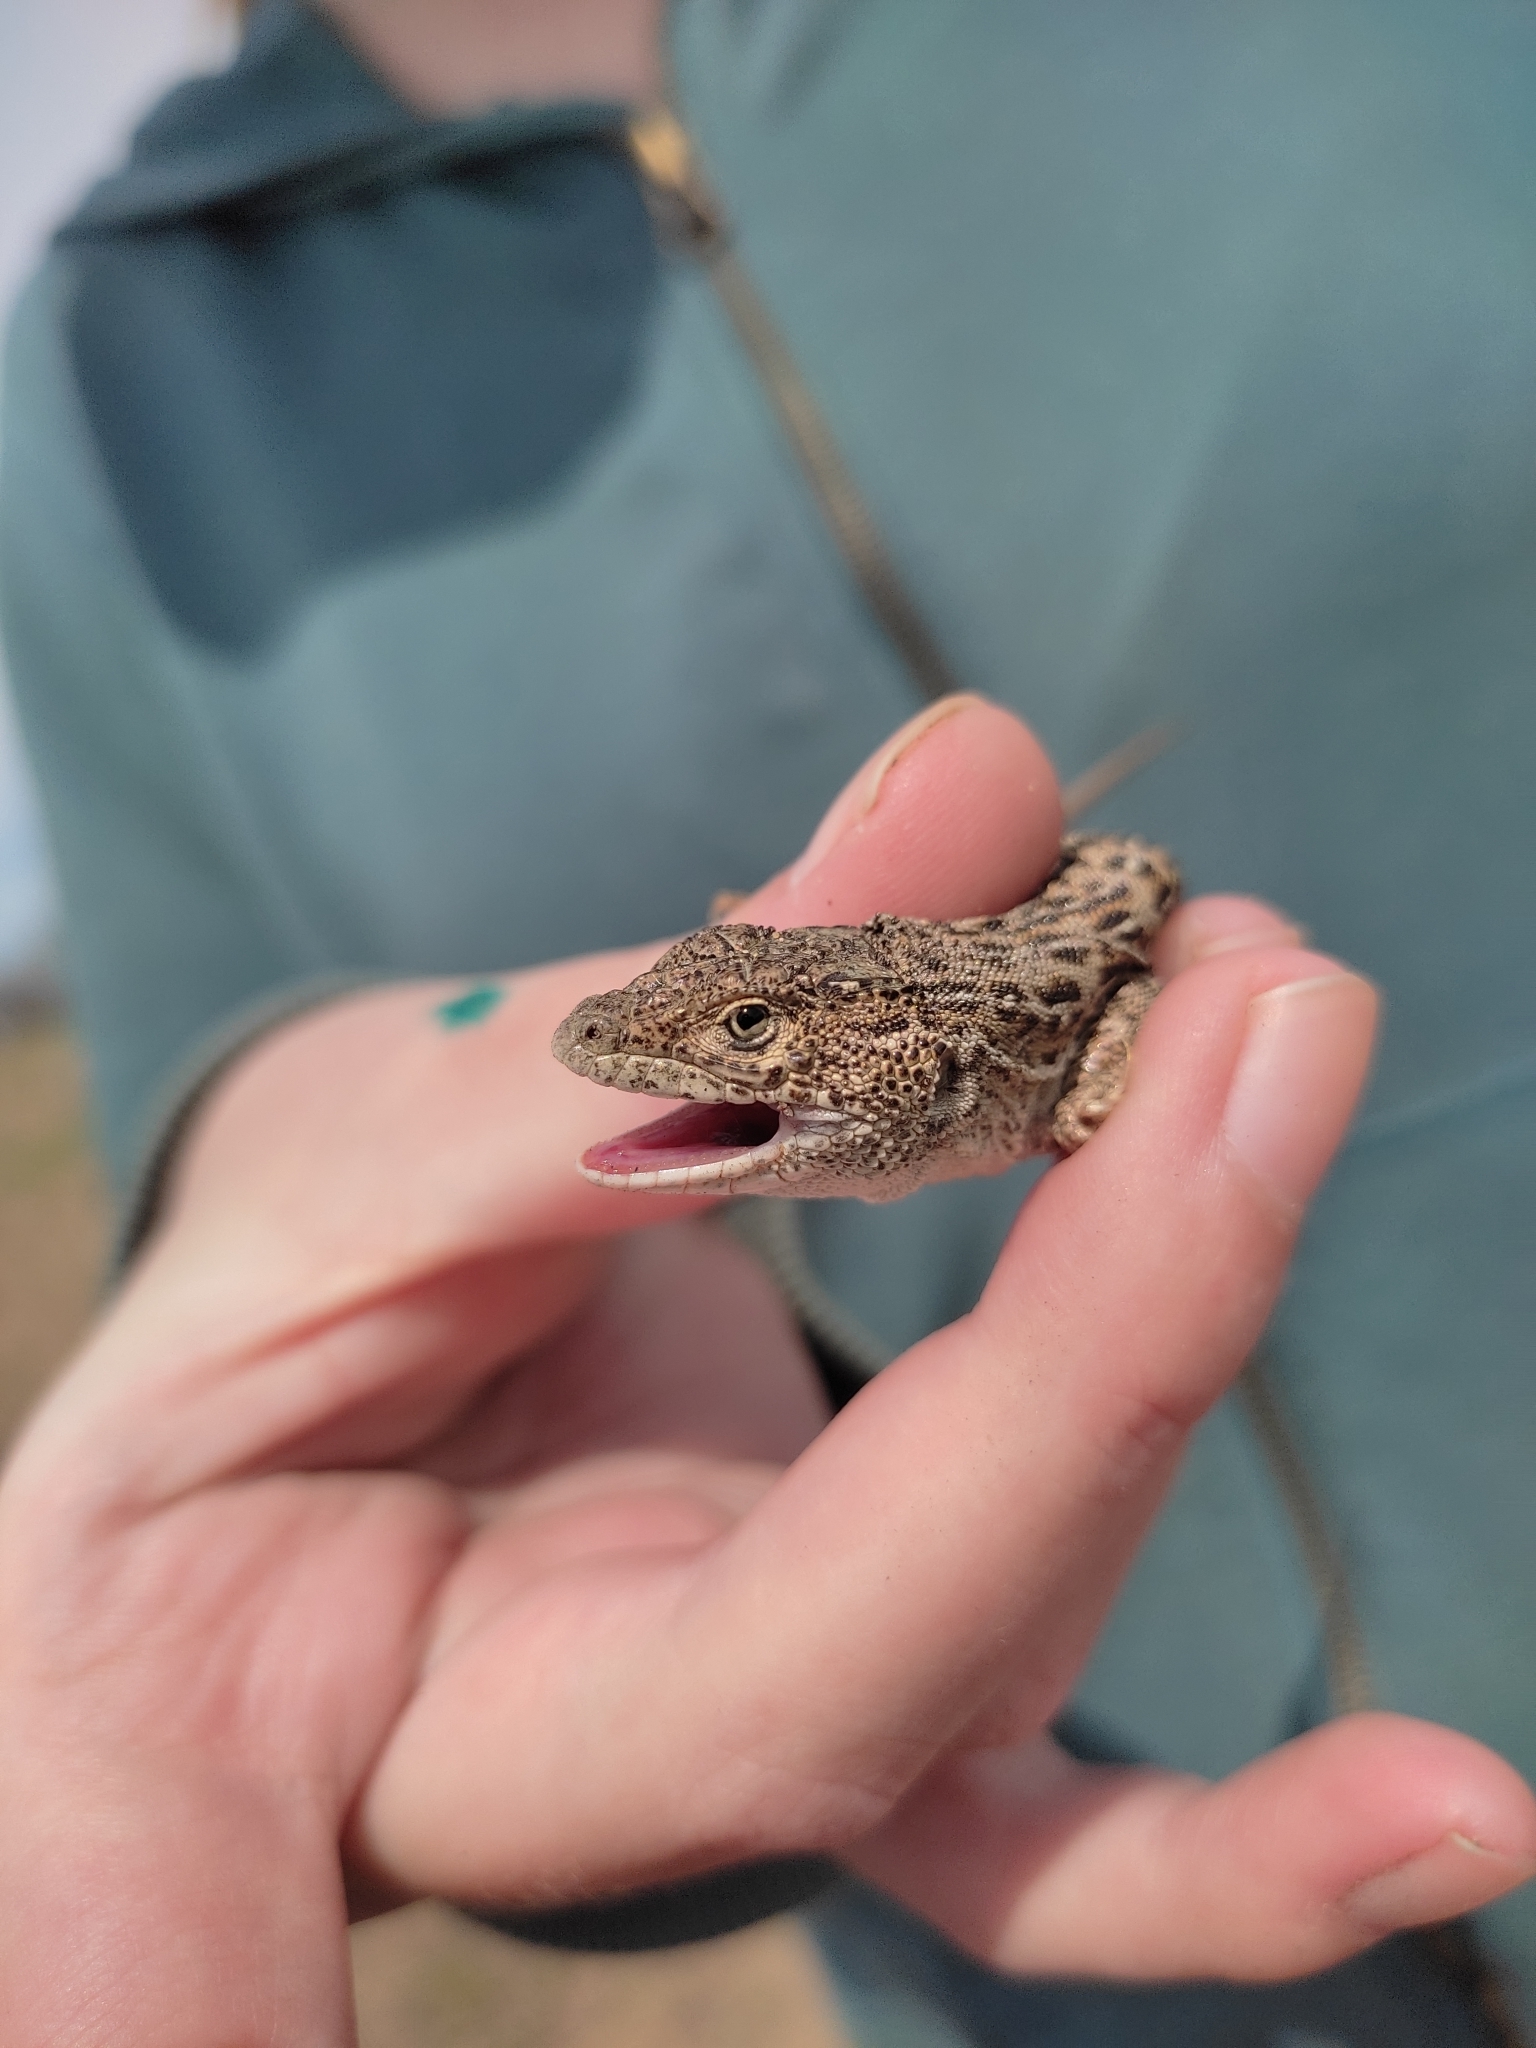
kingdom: Animalia
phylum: Chordata
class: Squamata
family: Lacertidae
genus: Eremias
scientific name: Eremias arguta
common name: Racerunner
